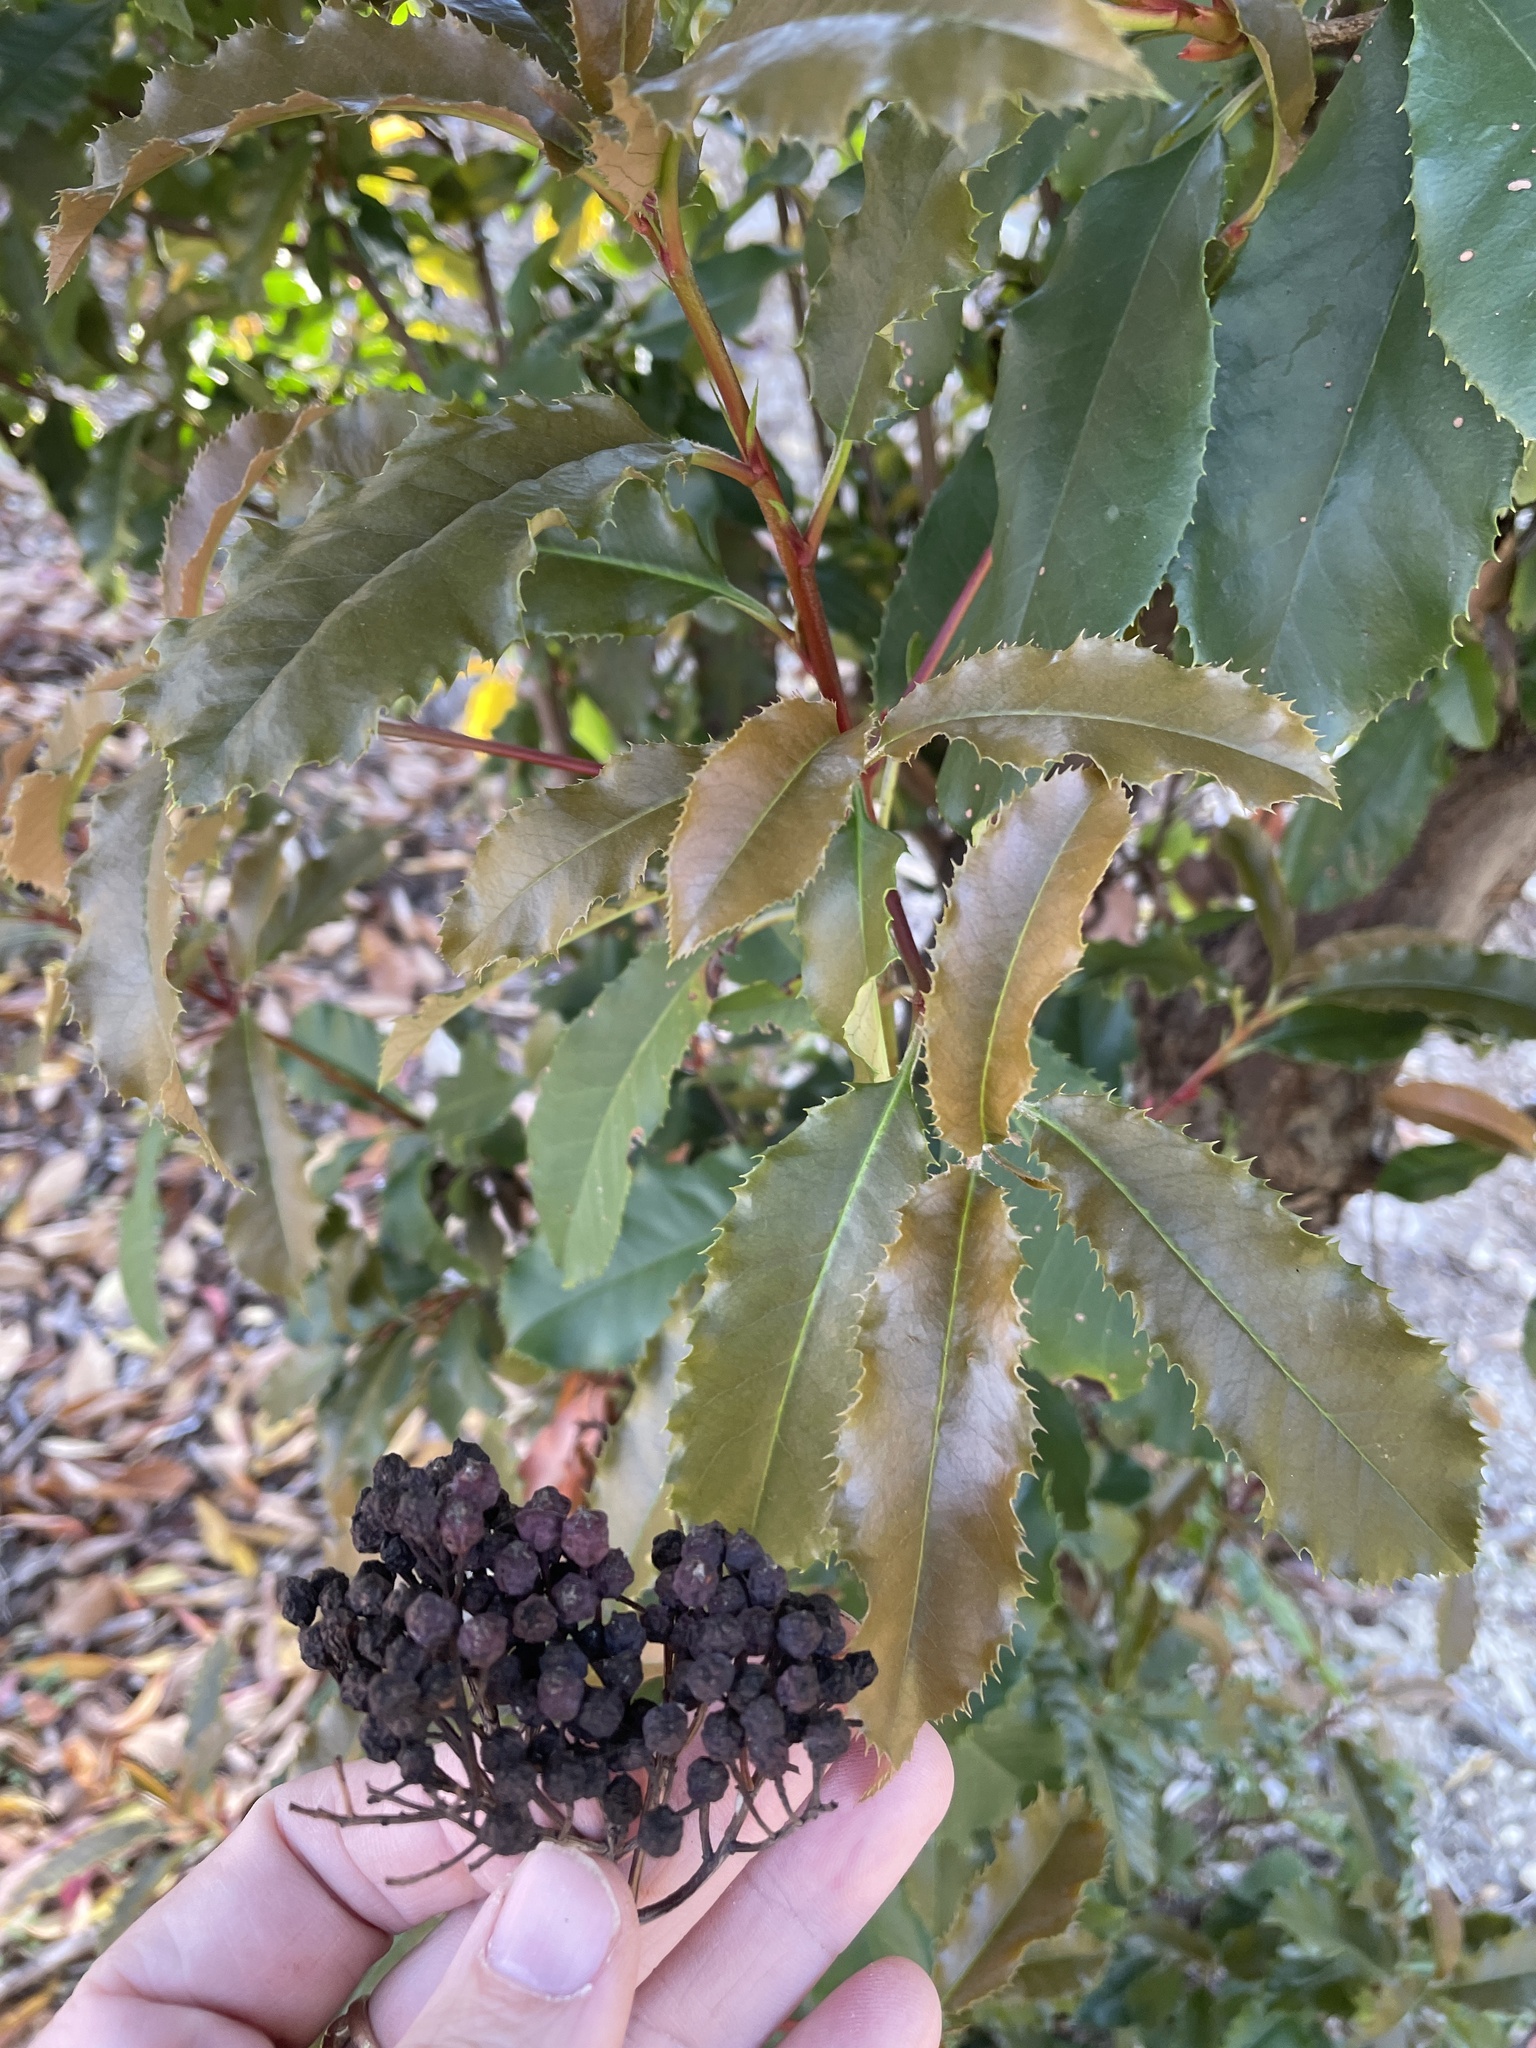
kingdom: Plantae
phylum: Tracheophyta
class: Magnoliopsida
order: Rosales
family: Rosaceae
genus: Photinia
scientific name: Photinia serratifolia
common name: Taiwanese photinia
